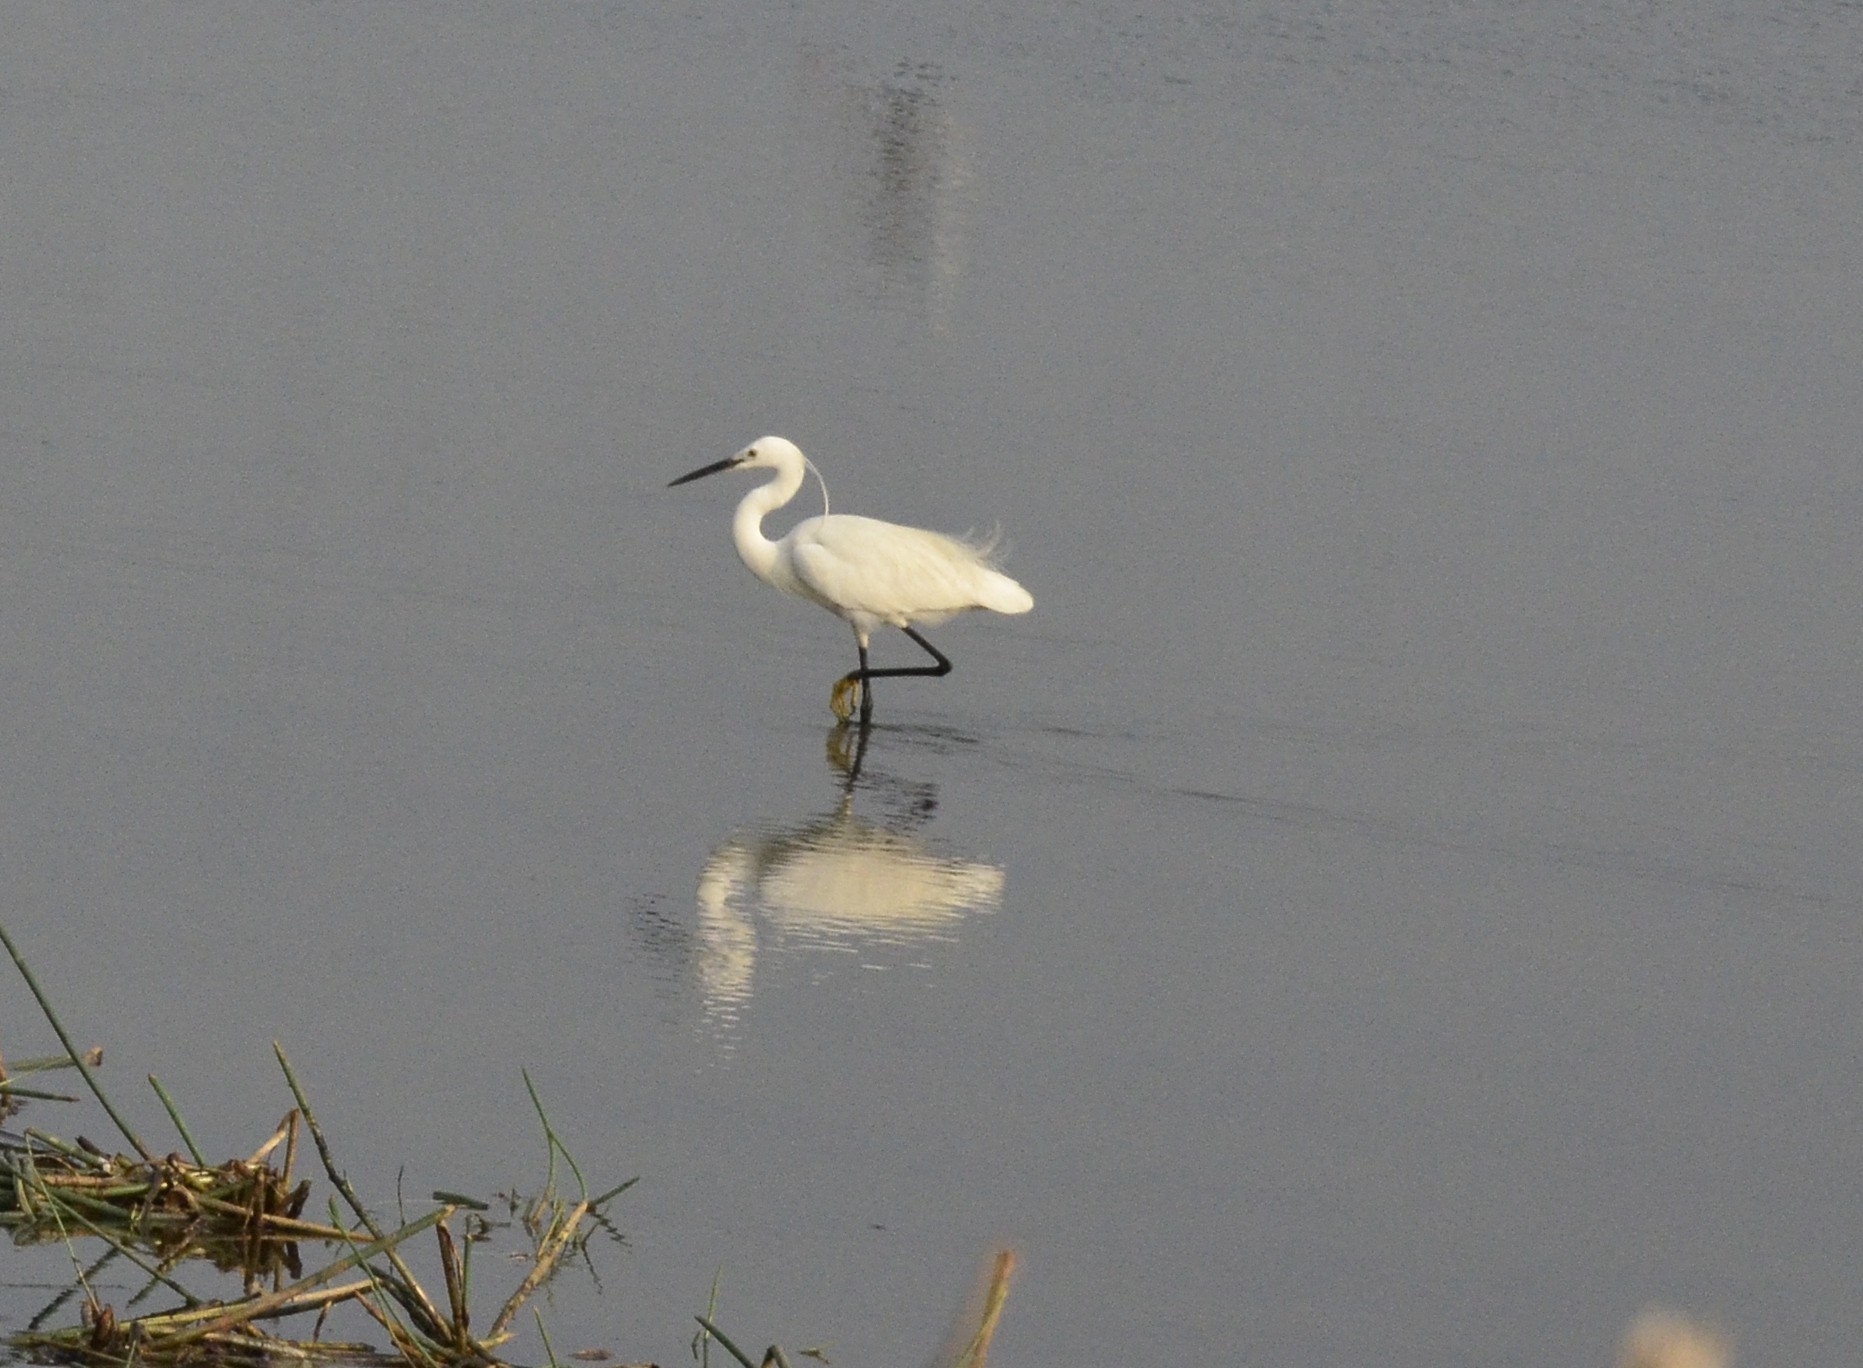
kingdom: Animalia
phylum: Chordata
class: Aves
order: Pelecaniformes
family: Ardeidae
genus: Egretta
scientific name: Egretta garzetta
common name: Little egret
